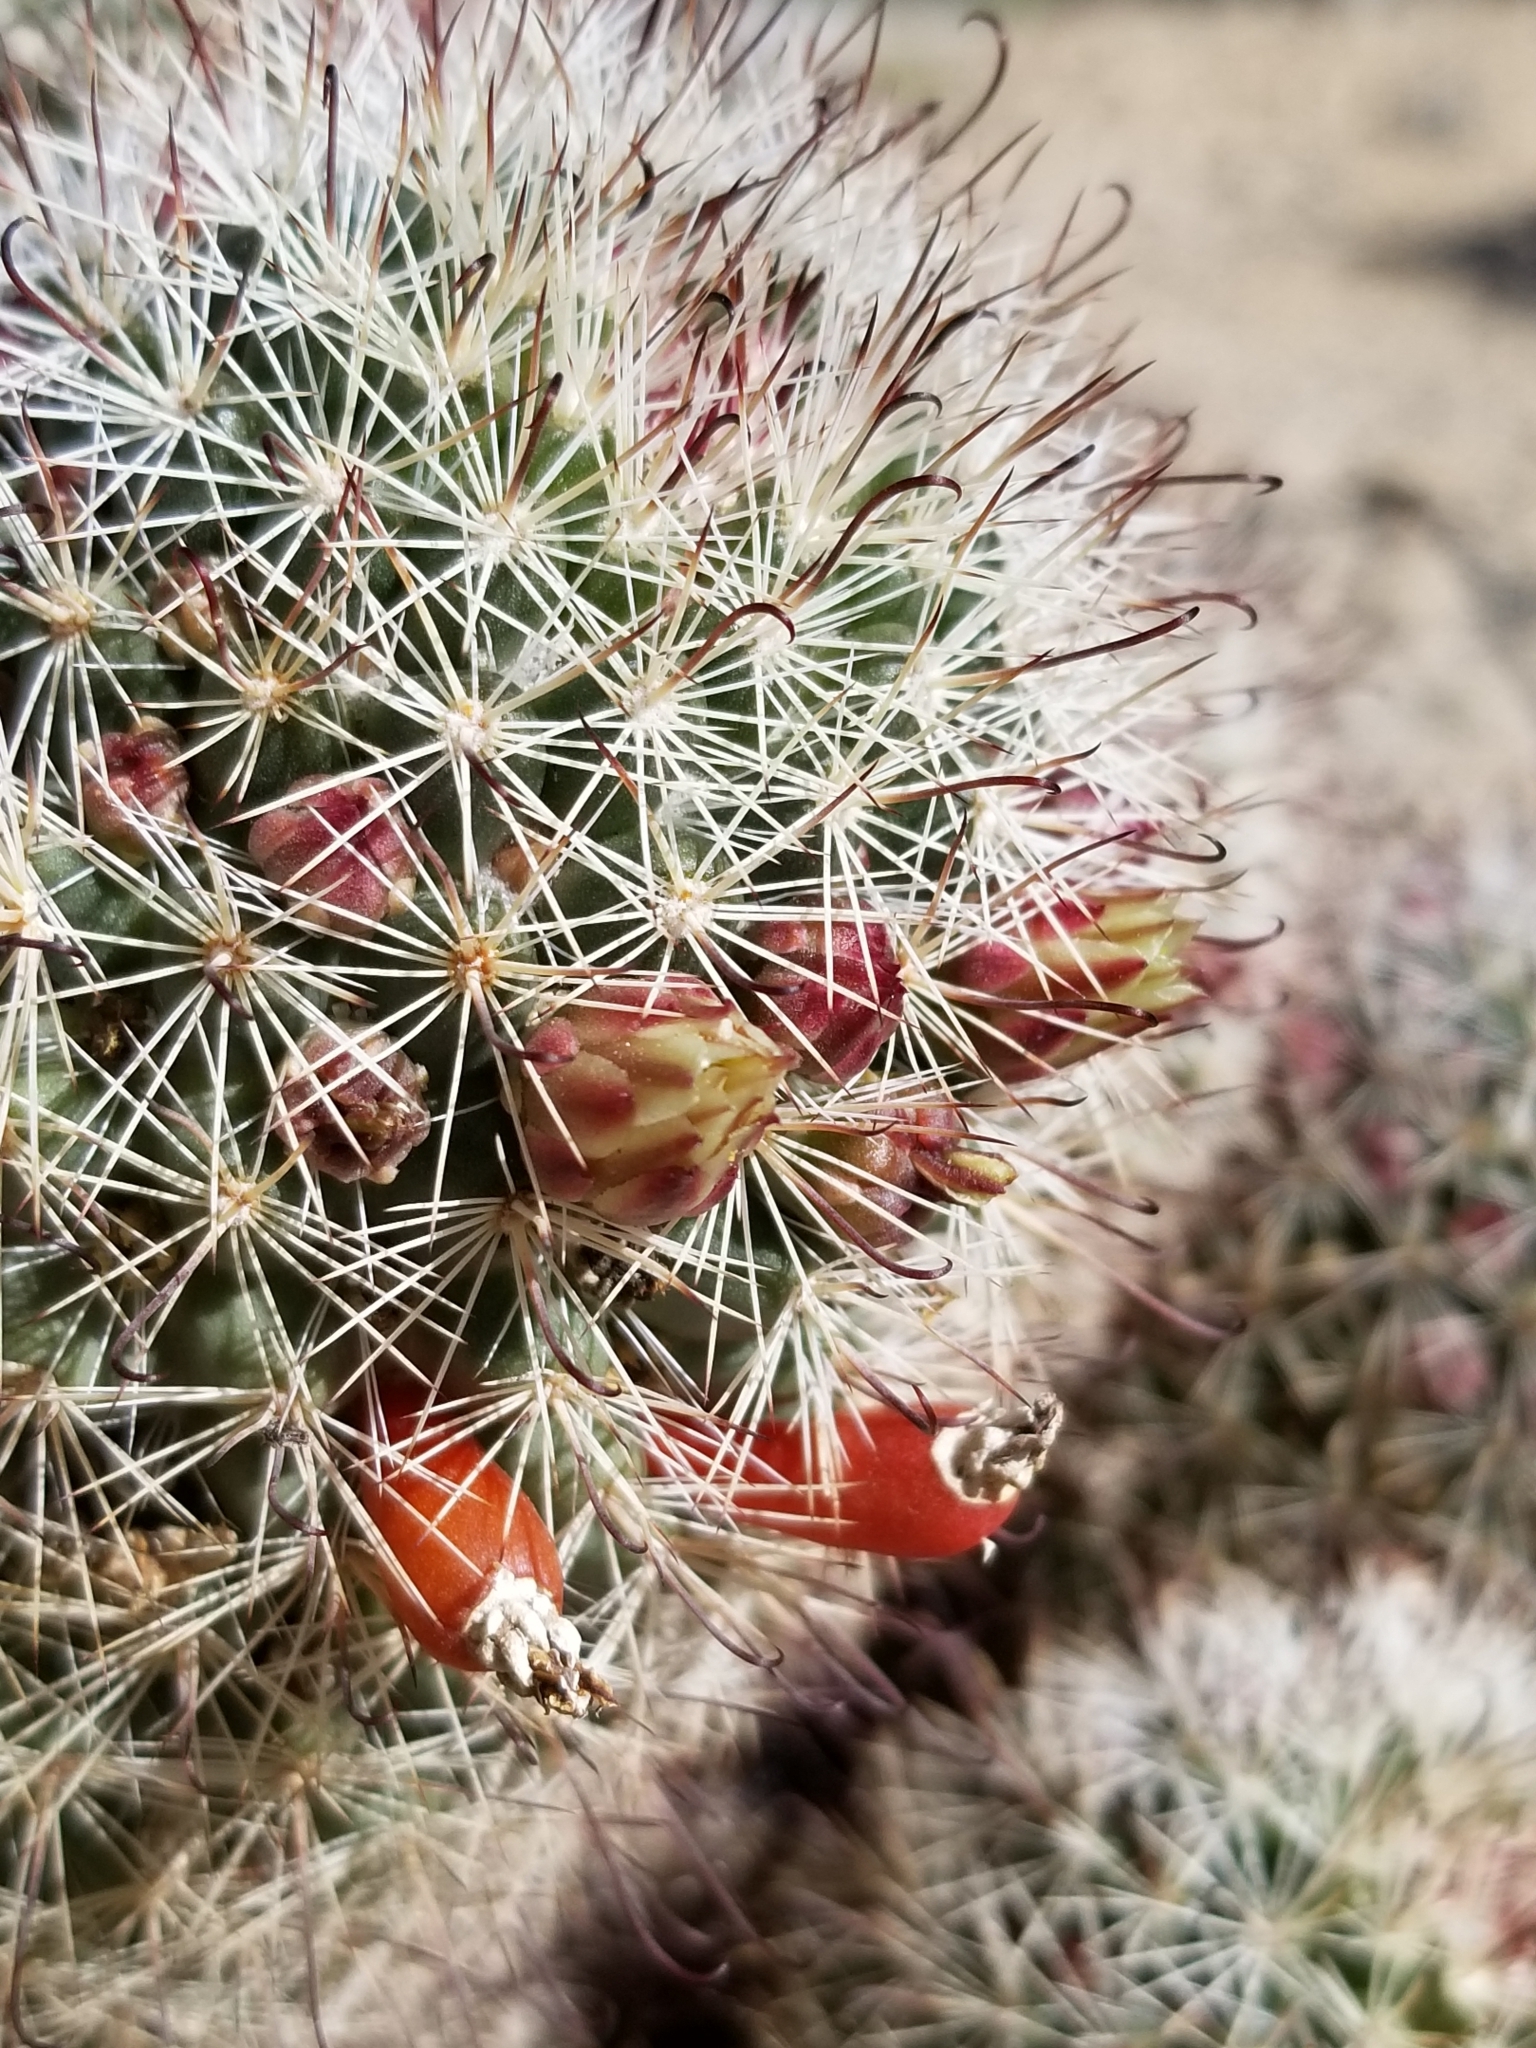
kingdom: Plantae
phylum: Tracheophyta
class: Magnoliopsida
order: Caryophyllales
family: Cactaceae
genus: Cochemiea
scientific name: Cochemiea dioica
